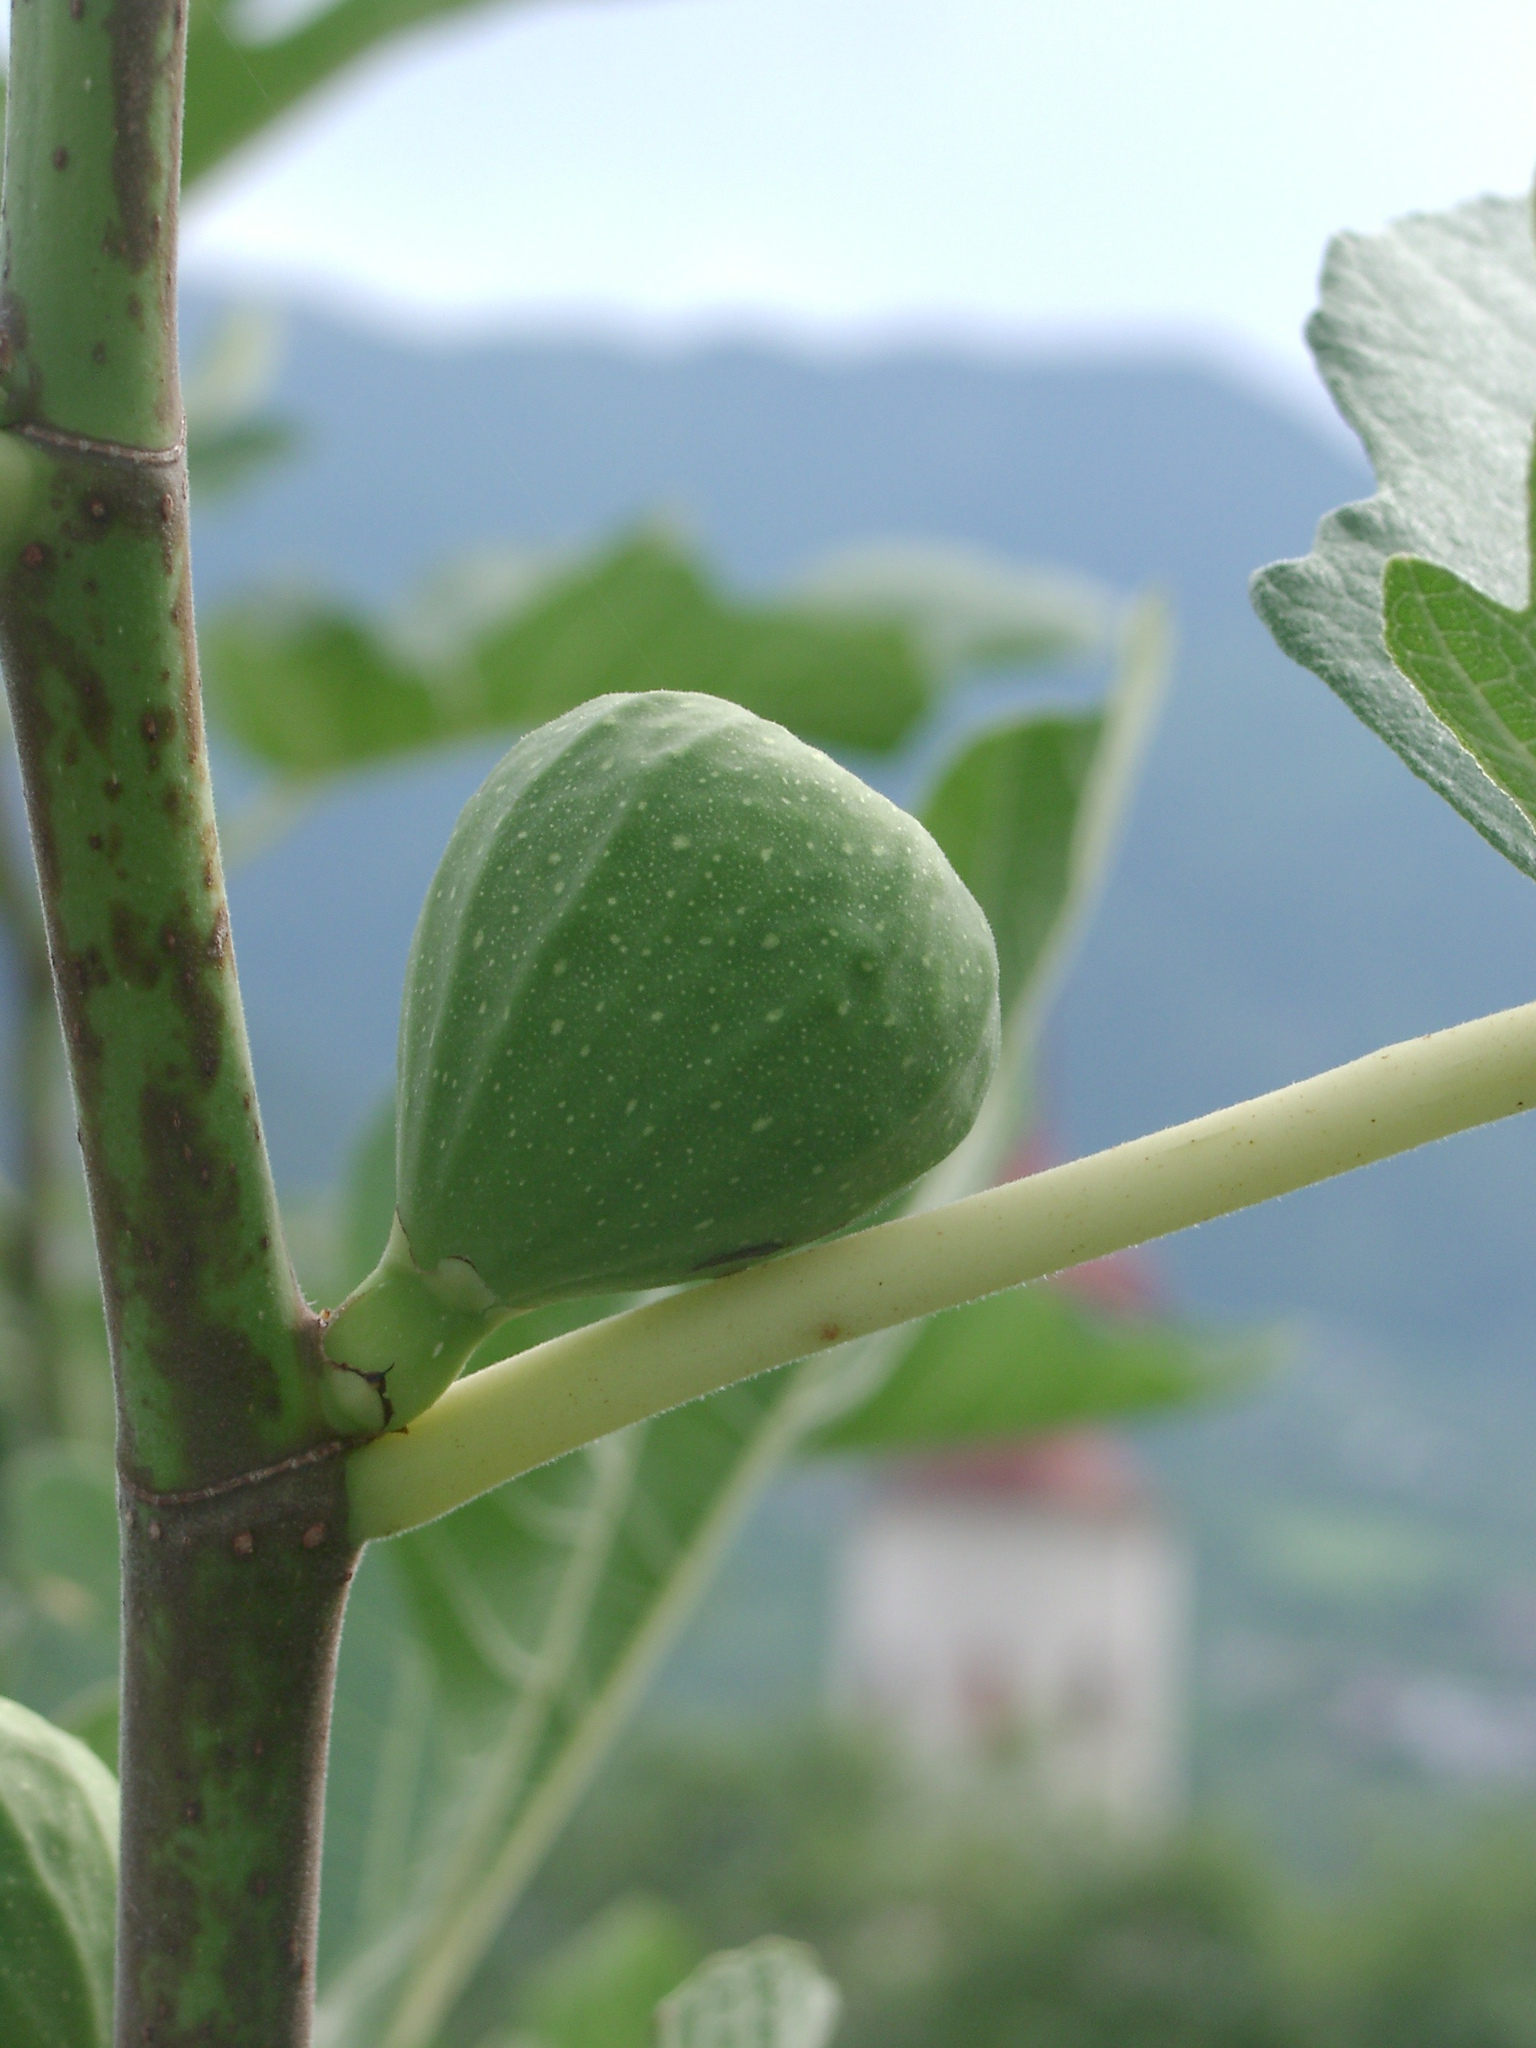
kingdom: Plantae
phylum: Tracheophyta
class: Magnoliopsida
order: Rosales
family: Moraceae
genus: Ficus
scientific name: Ficus carica
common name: Fig
